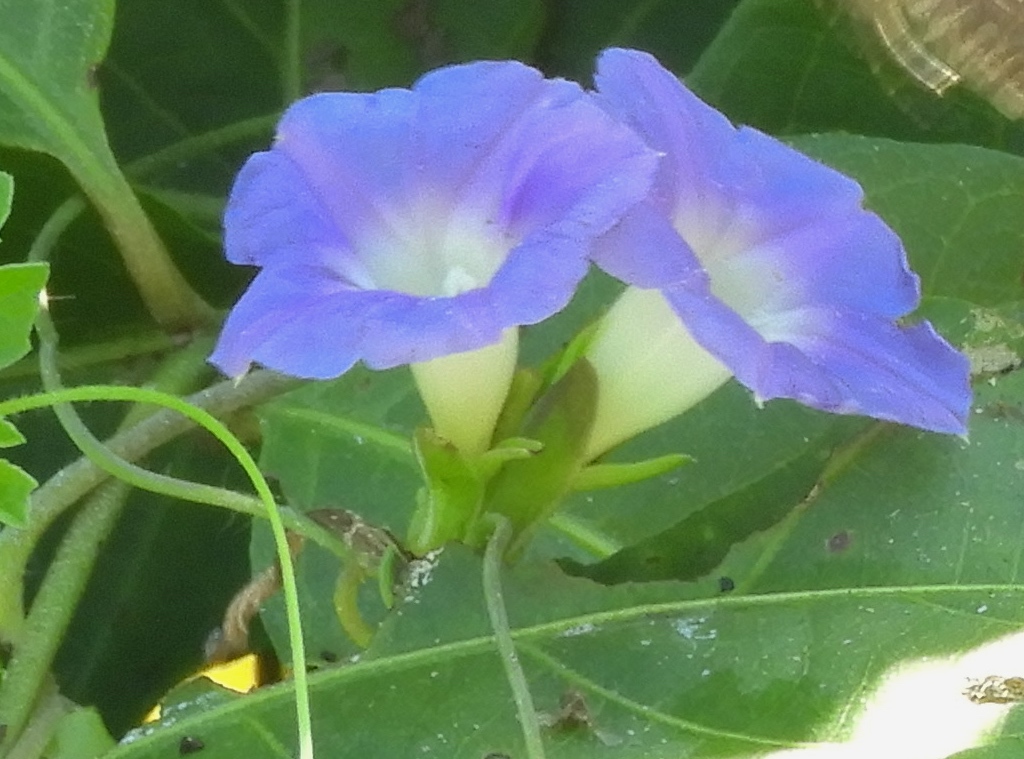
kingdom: Plantae
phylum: Tracheophyta
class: Magnoliopsida
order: Solanales
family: Convolvulaceae
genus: Ipomoea
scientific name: Ipomoea meyeri
